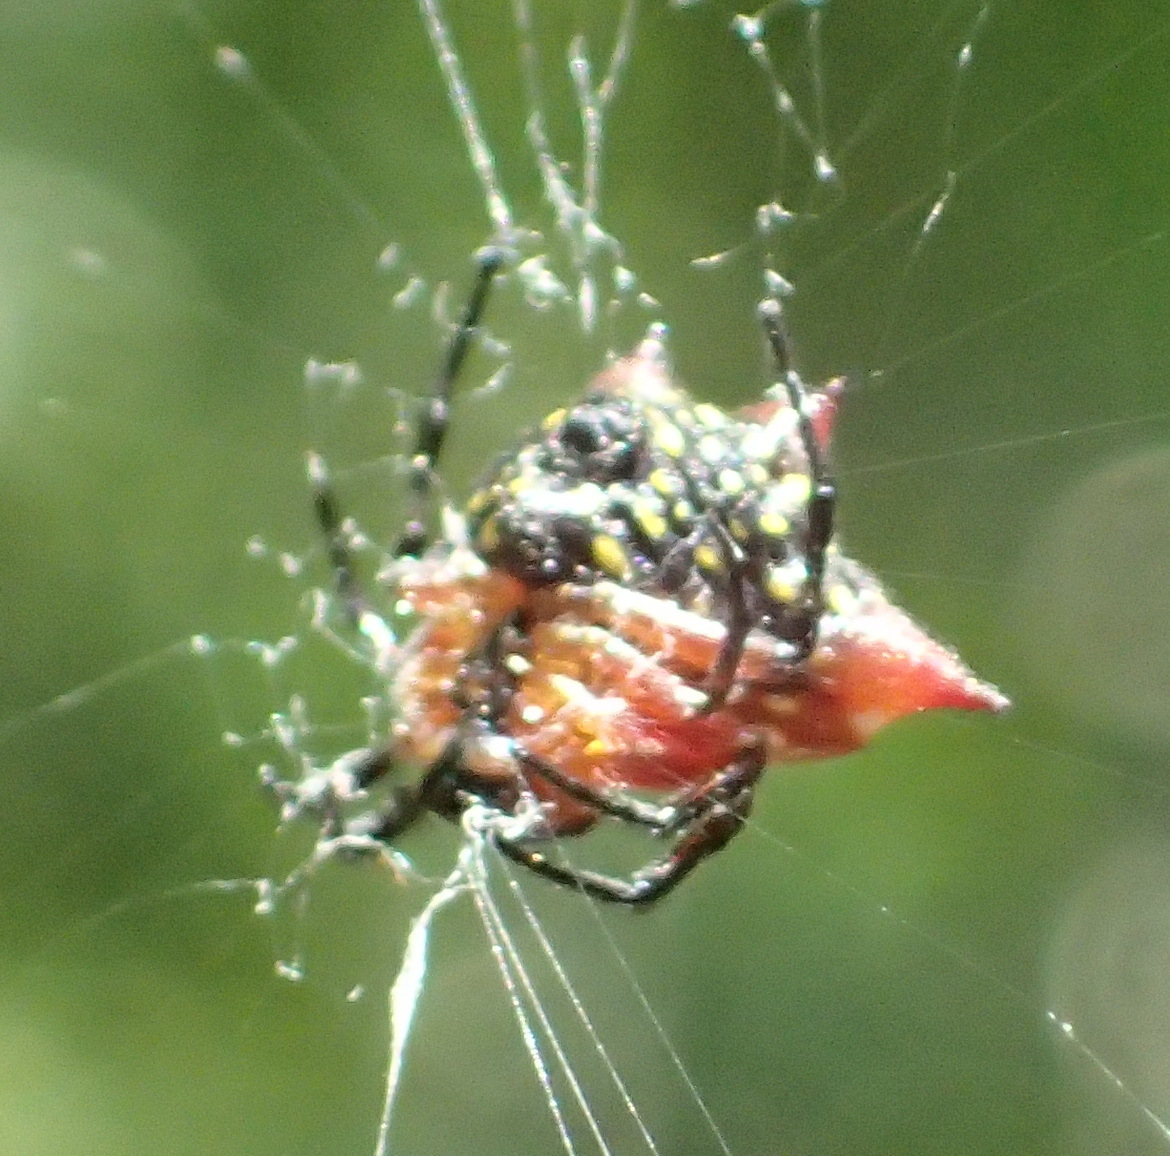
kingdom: Animalia
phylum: Arthropoda
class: Arachnida
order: Araneae
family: Araneidae
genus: Gasteracantha
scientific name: Gasteracantha sanguinolenta
